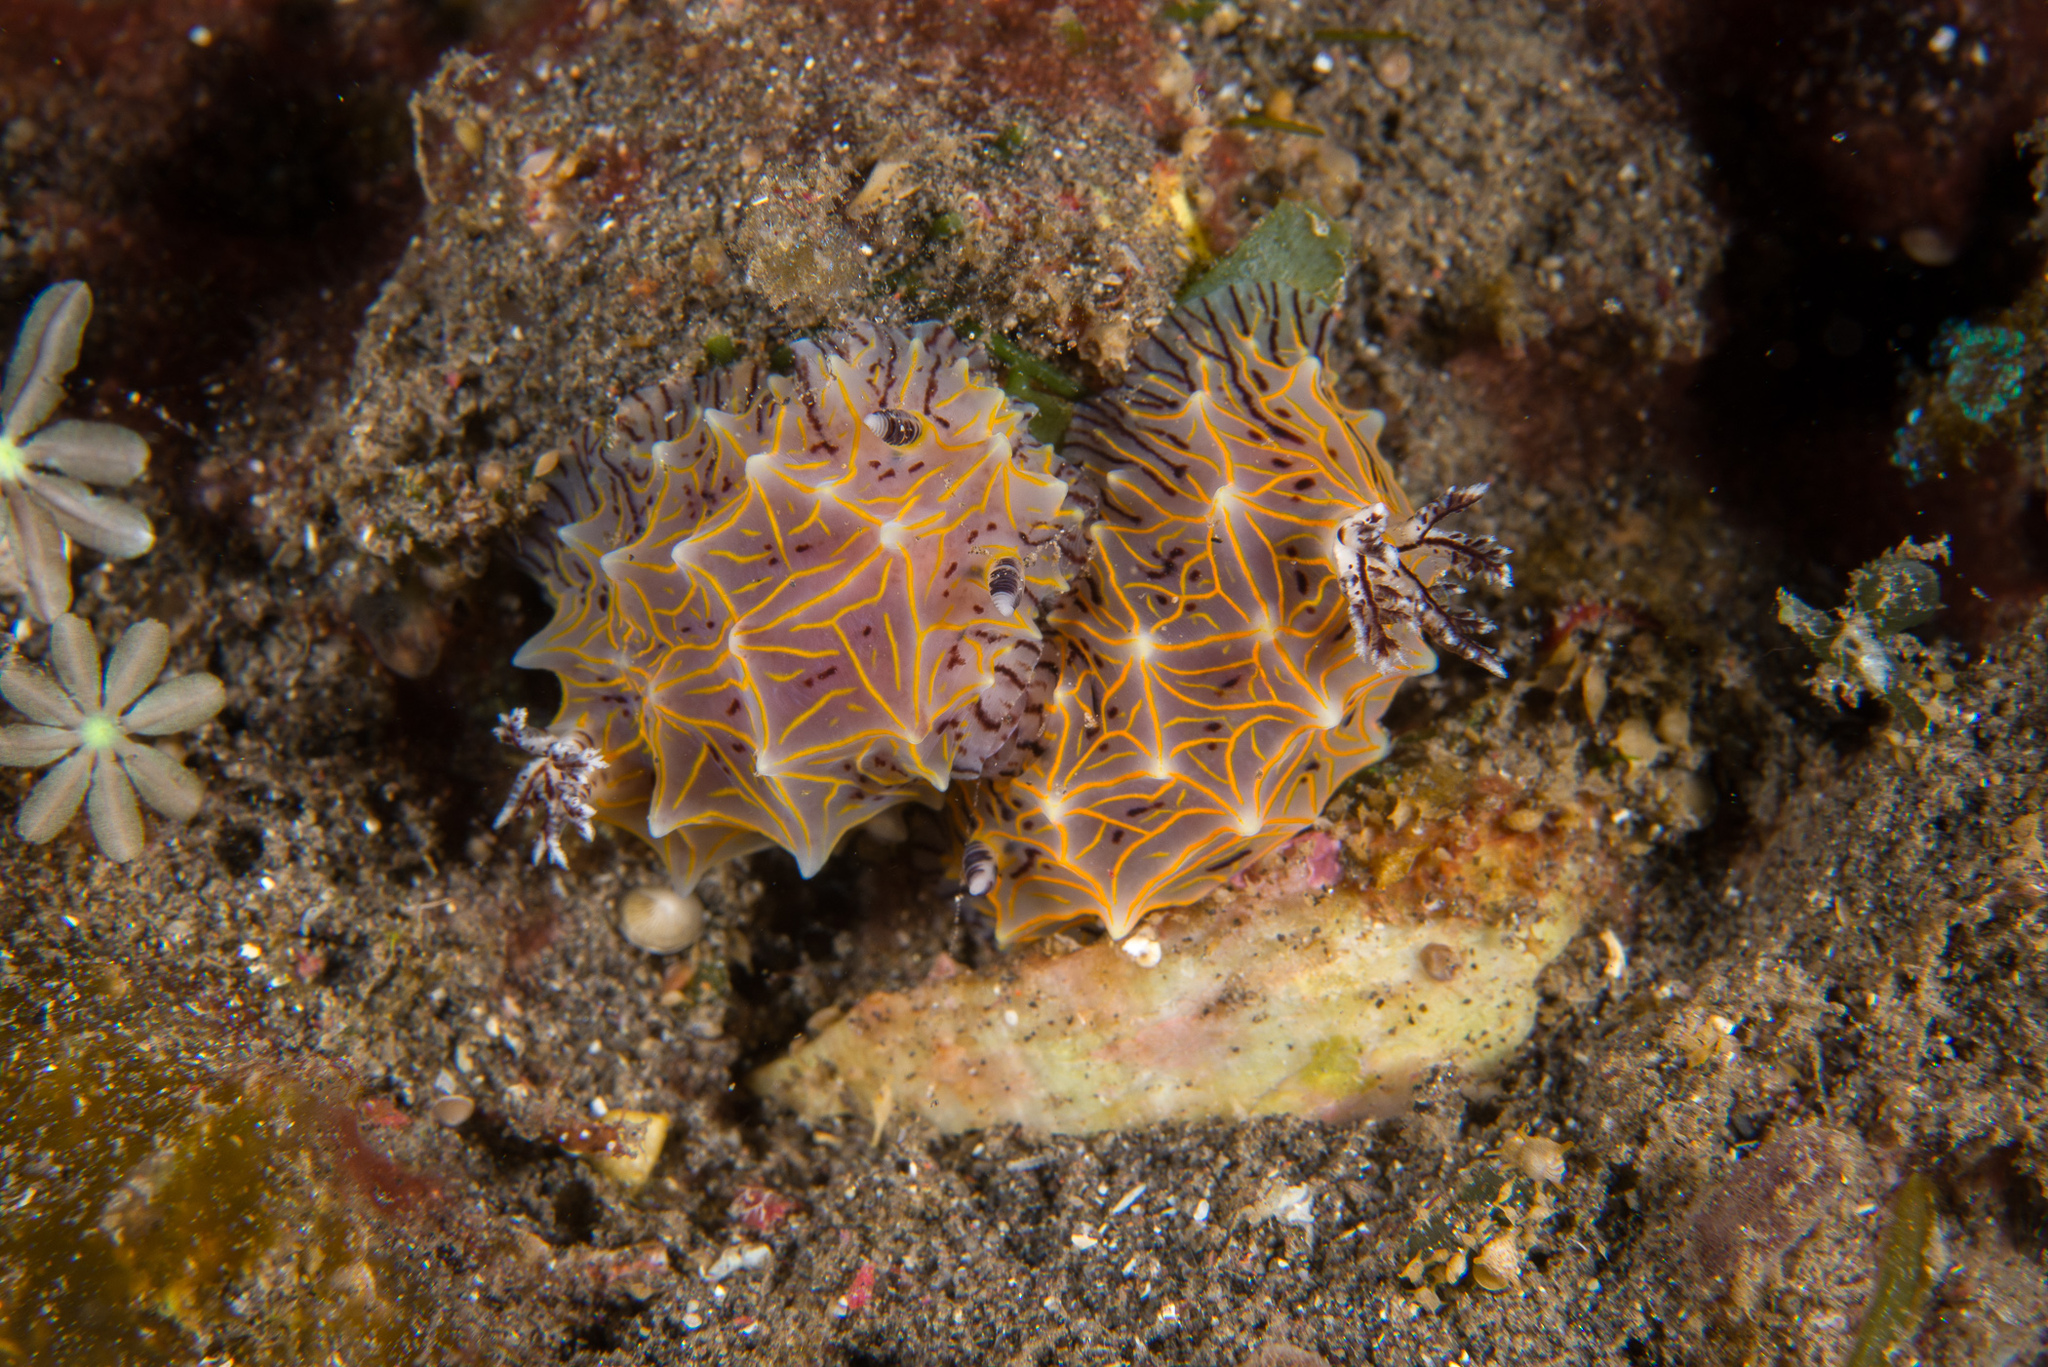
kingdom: Animalia
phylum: Mollusca
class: Gastropoda
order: Nudibranchia
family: Discodorididae
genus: Halgerda
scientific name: Halgerda willeyi
